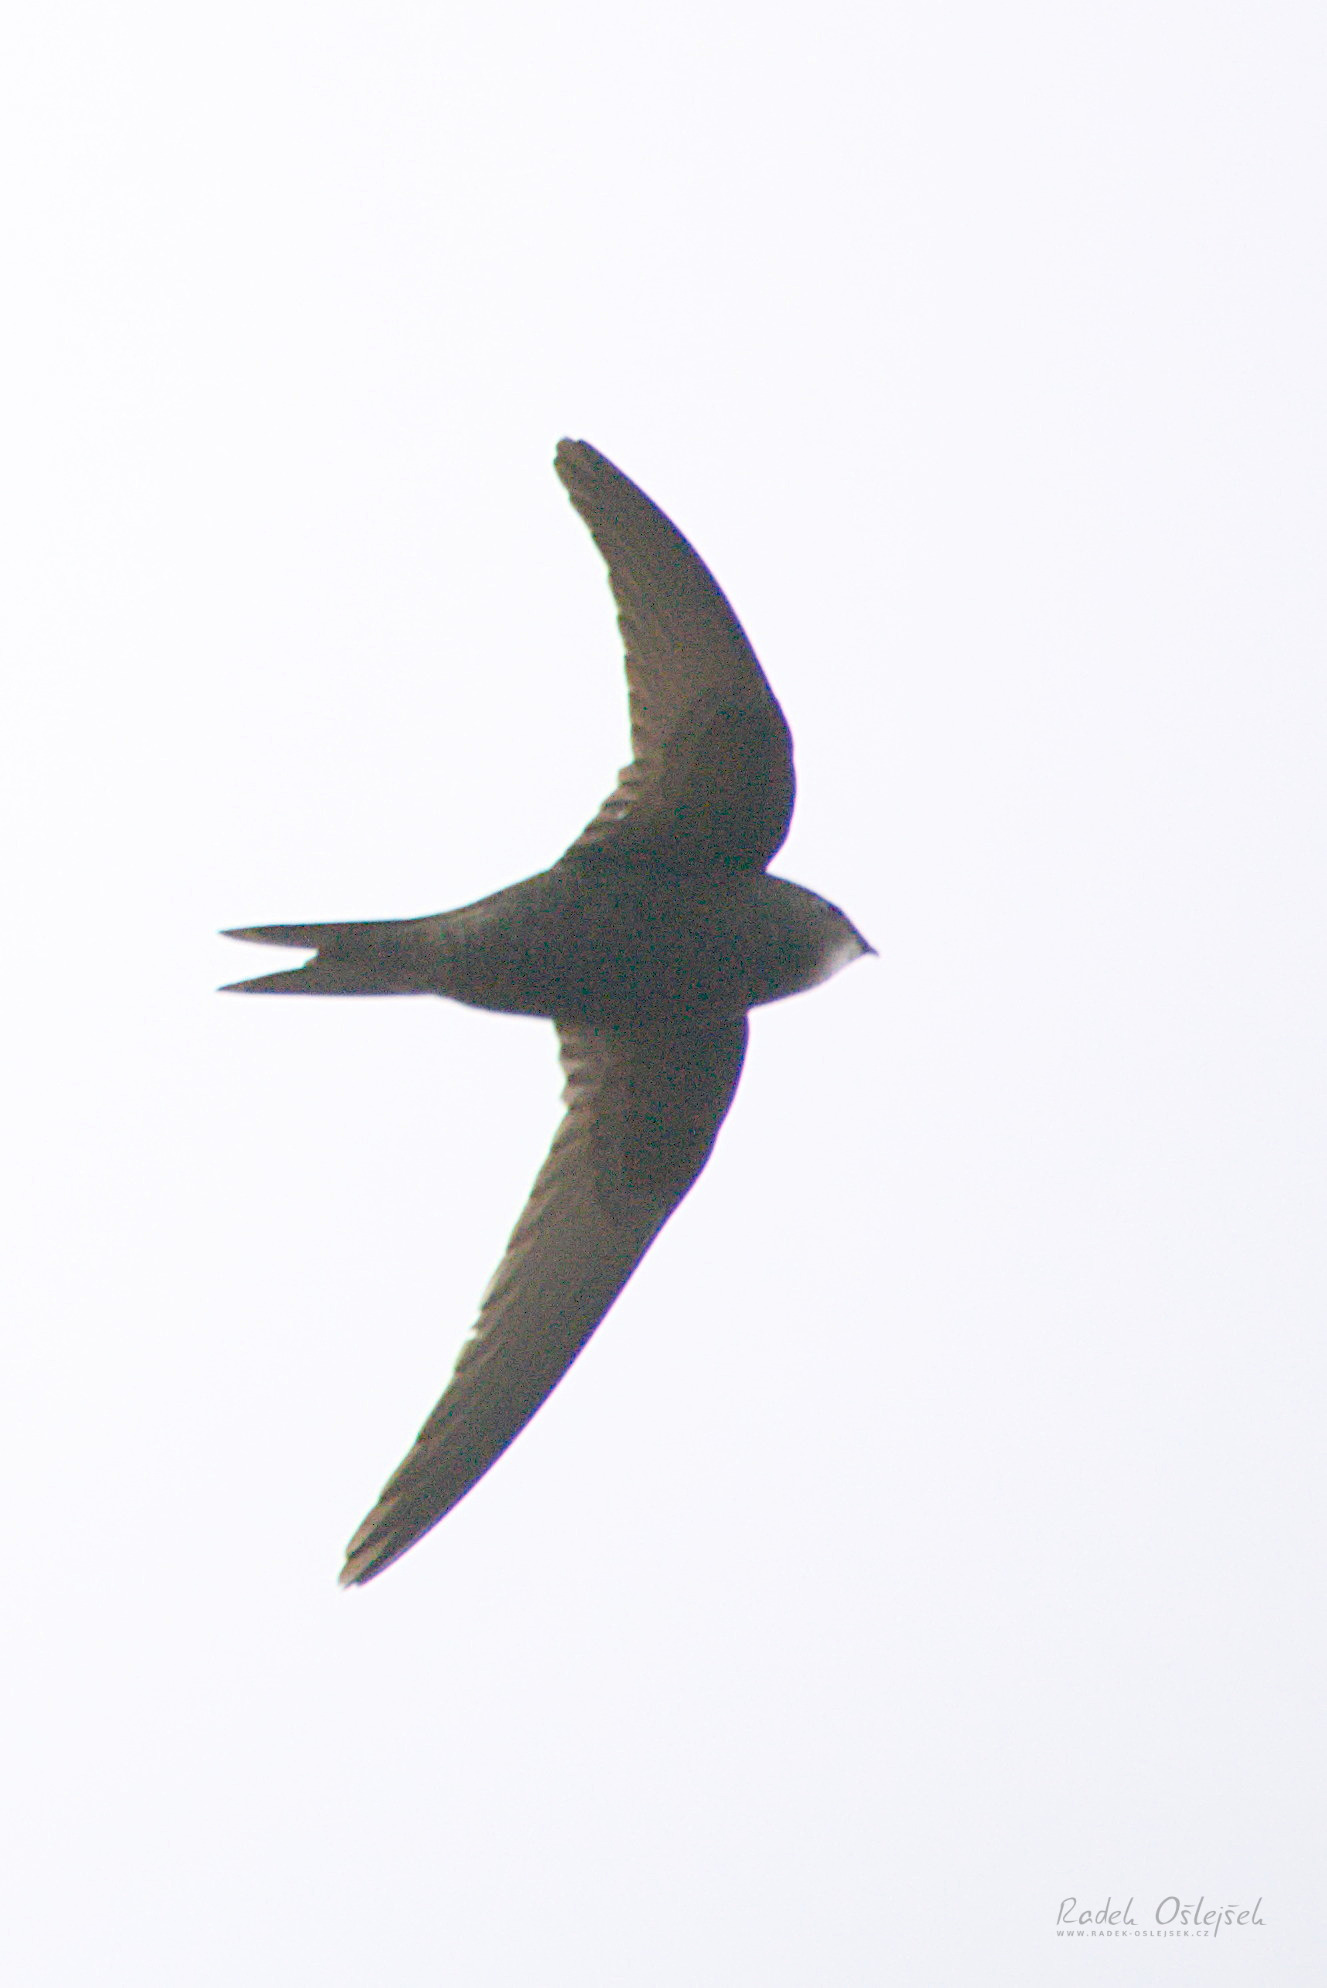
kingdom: Animalia
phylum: Chordata
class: Aves
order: Apodiformes
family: Apodidae
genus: Apus
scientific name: Apus apus
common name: Common swift
